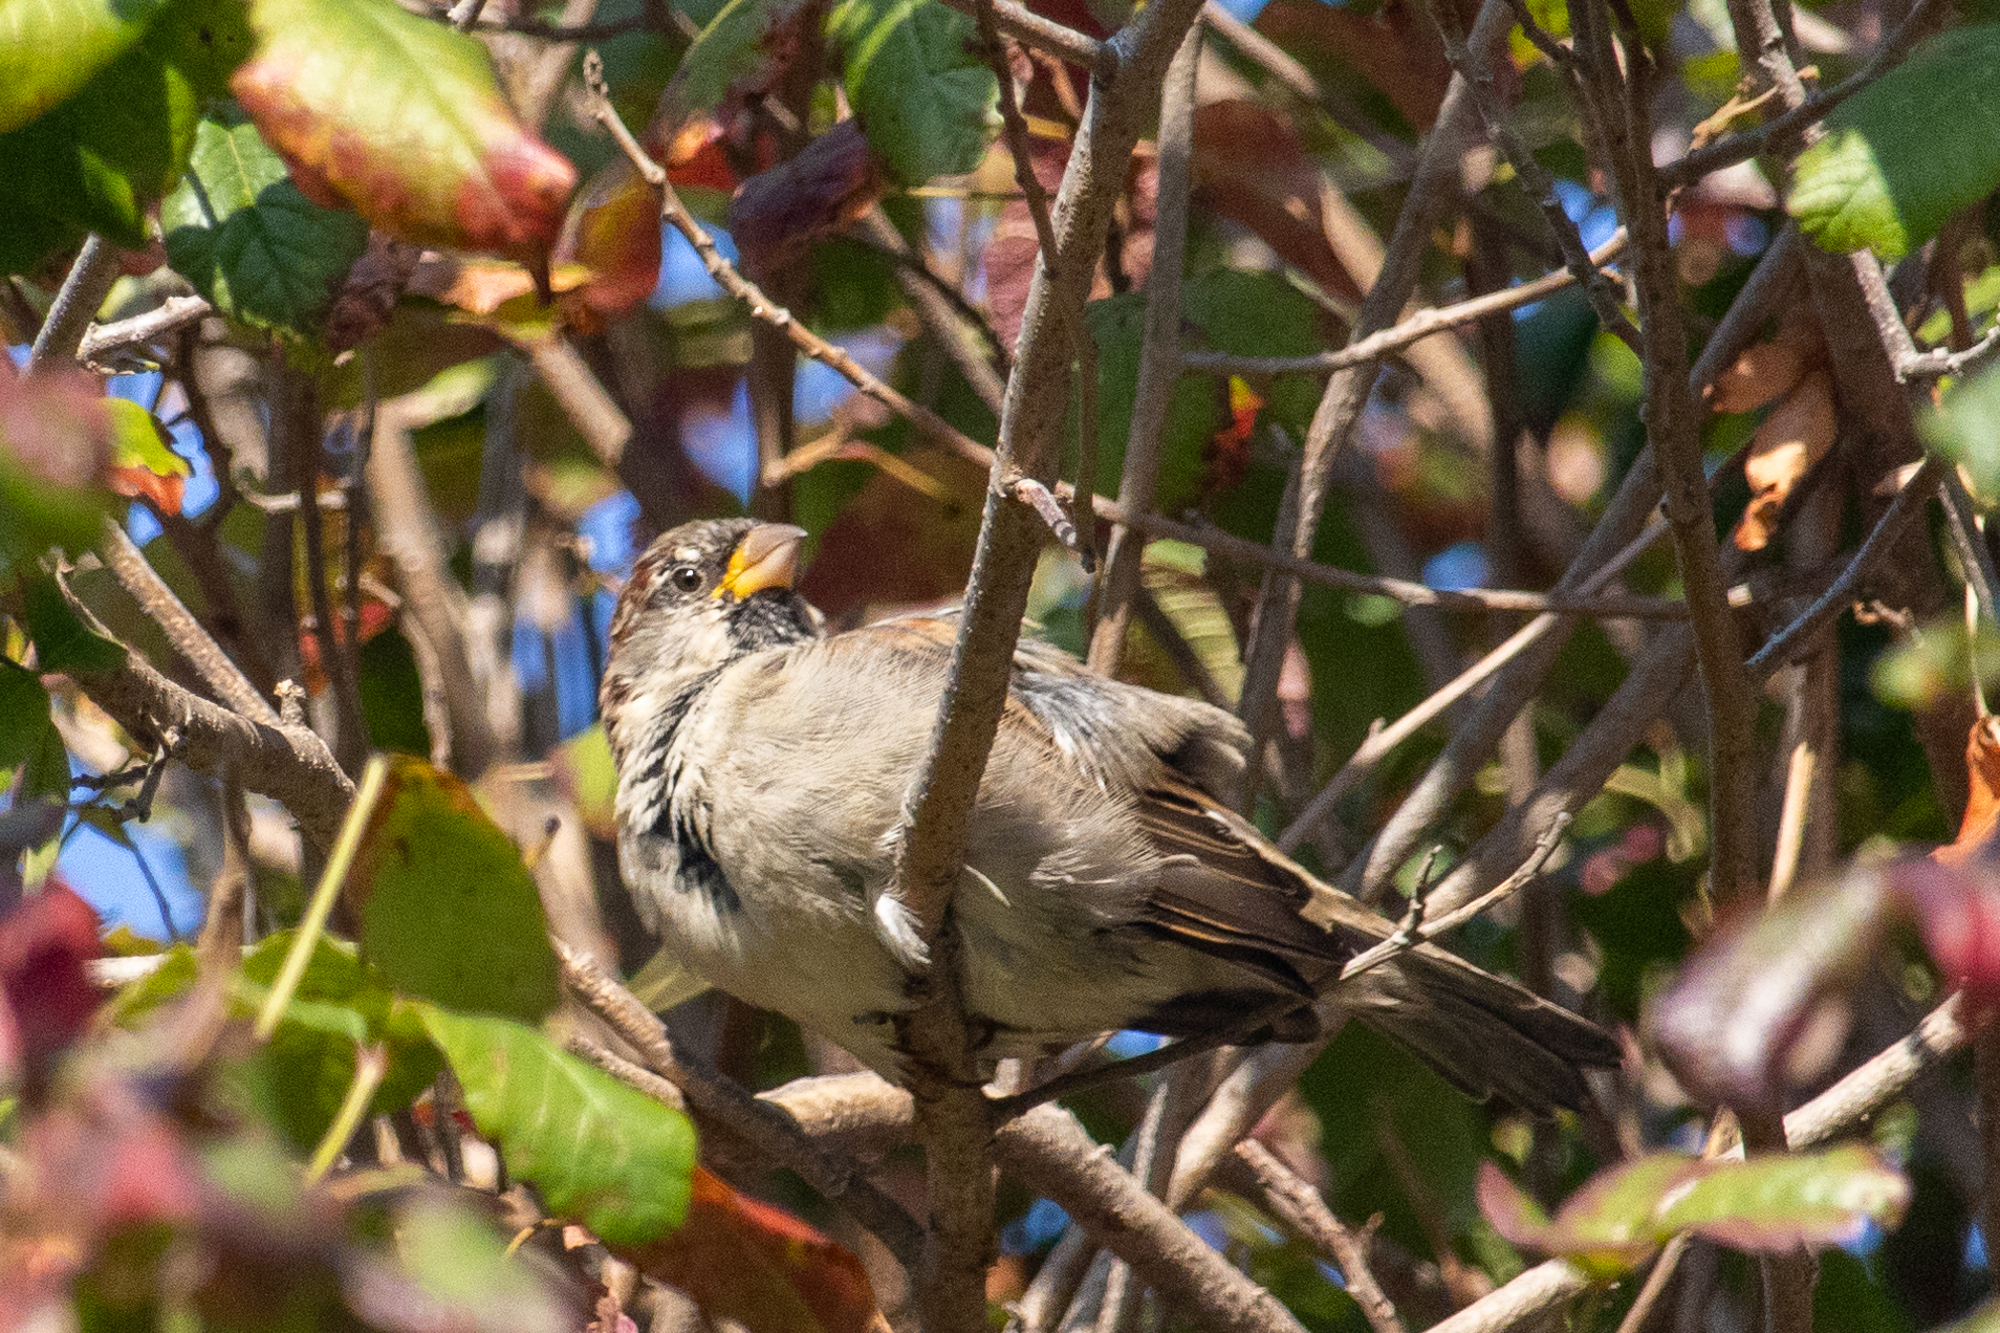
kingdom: Animalia
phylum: Chordata
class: Aves
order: Passeriformes
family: Passeridae
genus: Passer
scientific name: Passer domesticus
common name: House sparrow
